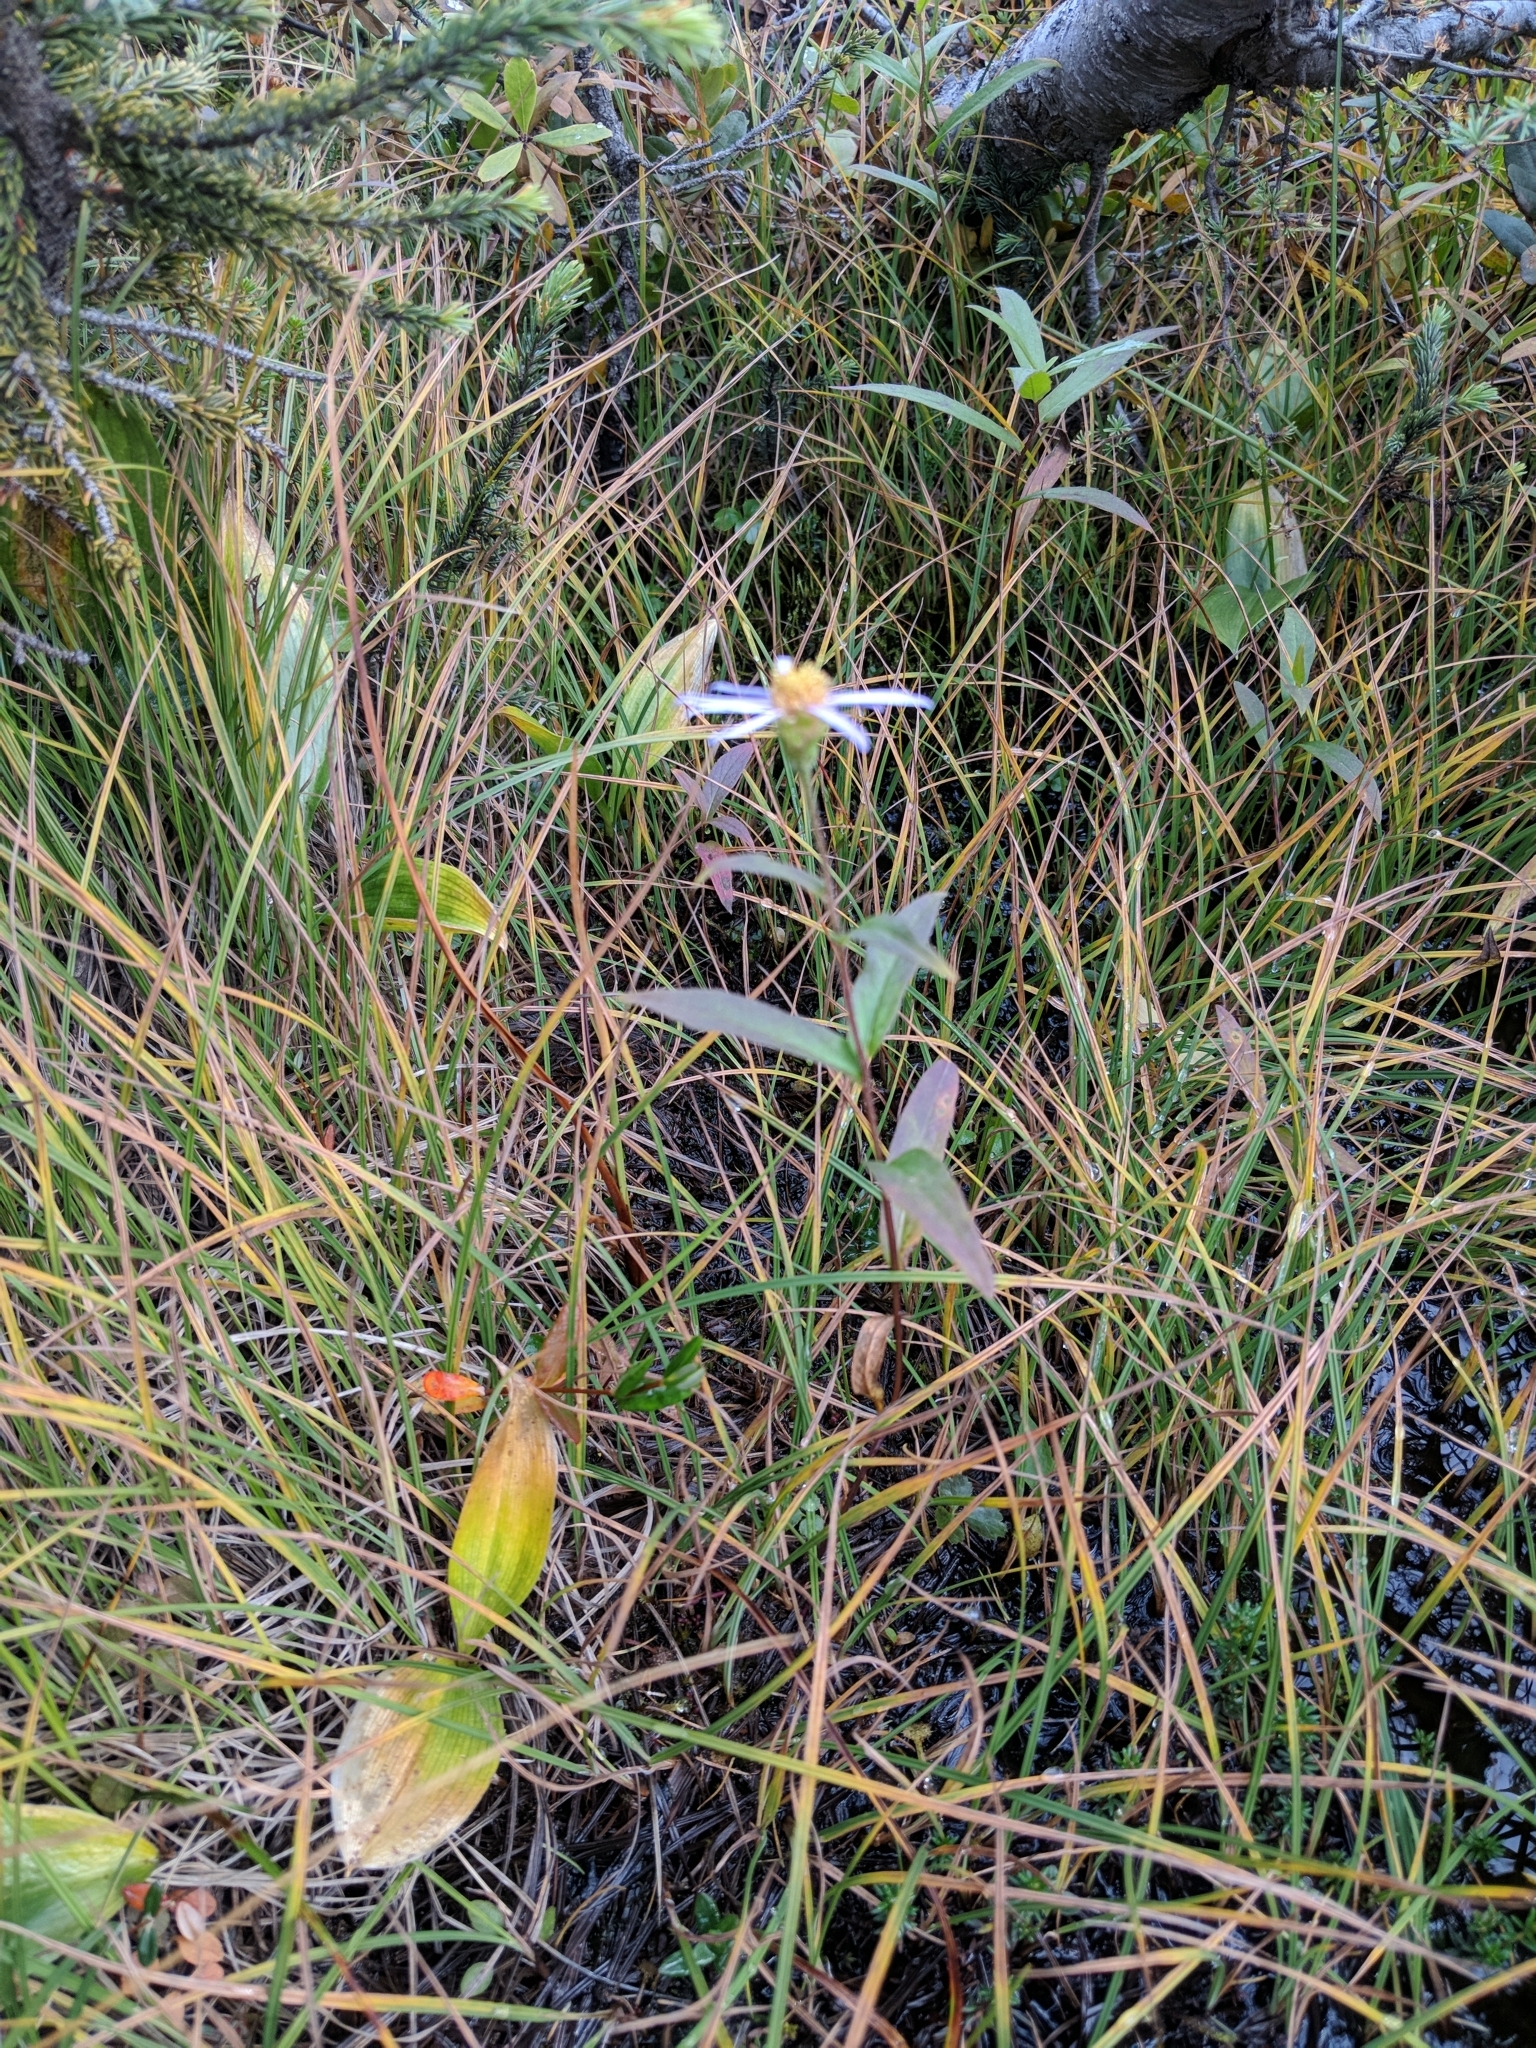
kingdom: Plantae
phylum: Tracheophyta
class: Magnoliopsida
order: Asterales
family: Asteraceae
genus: Eurybia
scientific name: Eurybia radula
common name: Low rough aster
